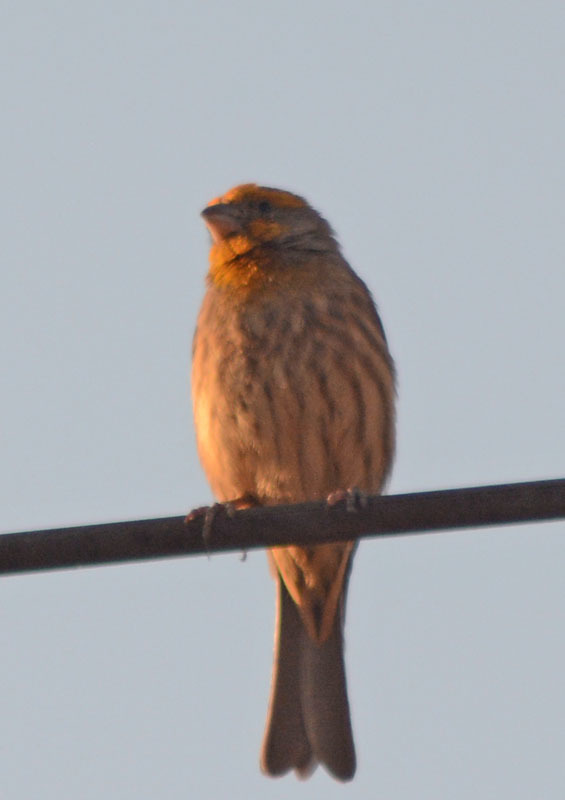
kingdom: Animalia
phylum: Chordata
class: Aves
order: Passeriformes
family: Fringillidae
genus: Haemorhous
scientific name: Haemorhous mexicanus
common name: House finch
